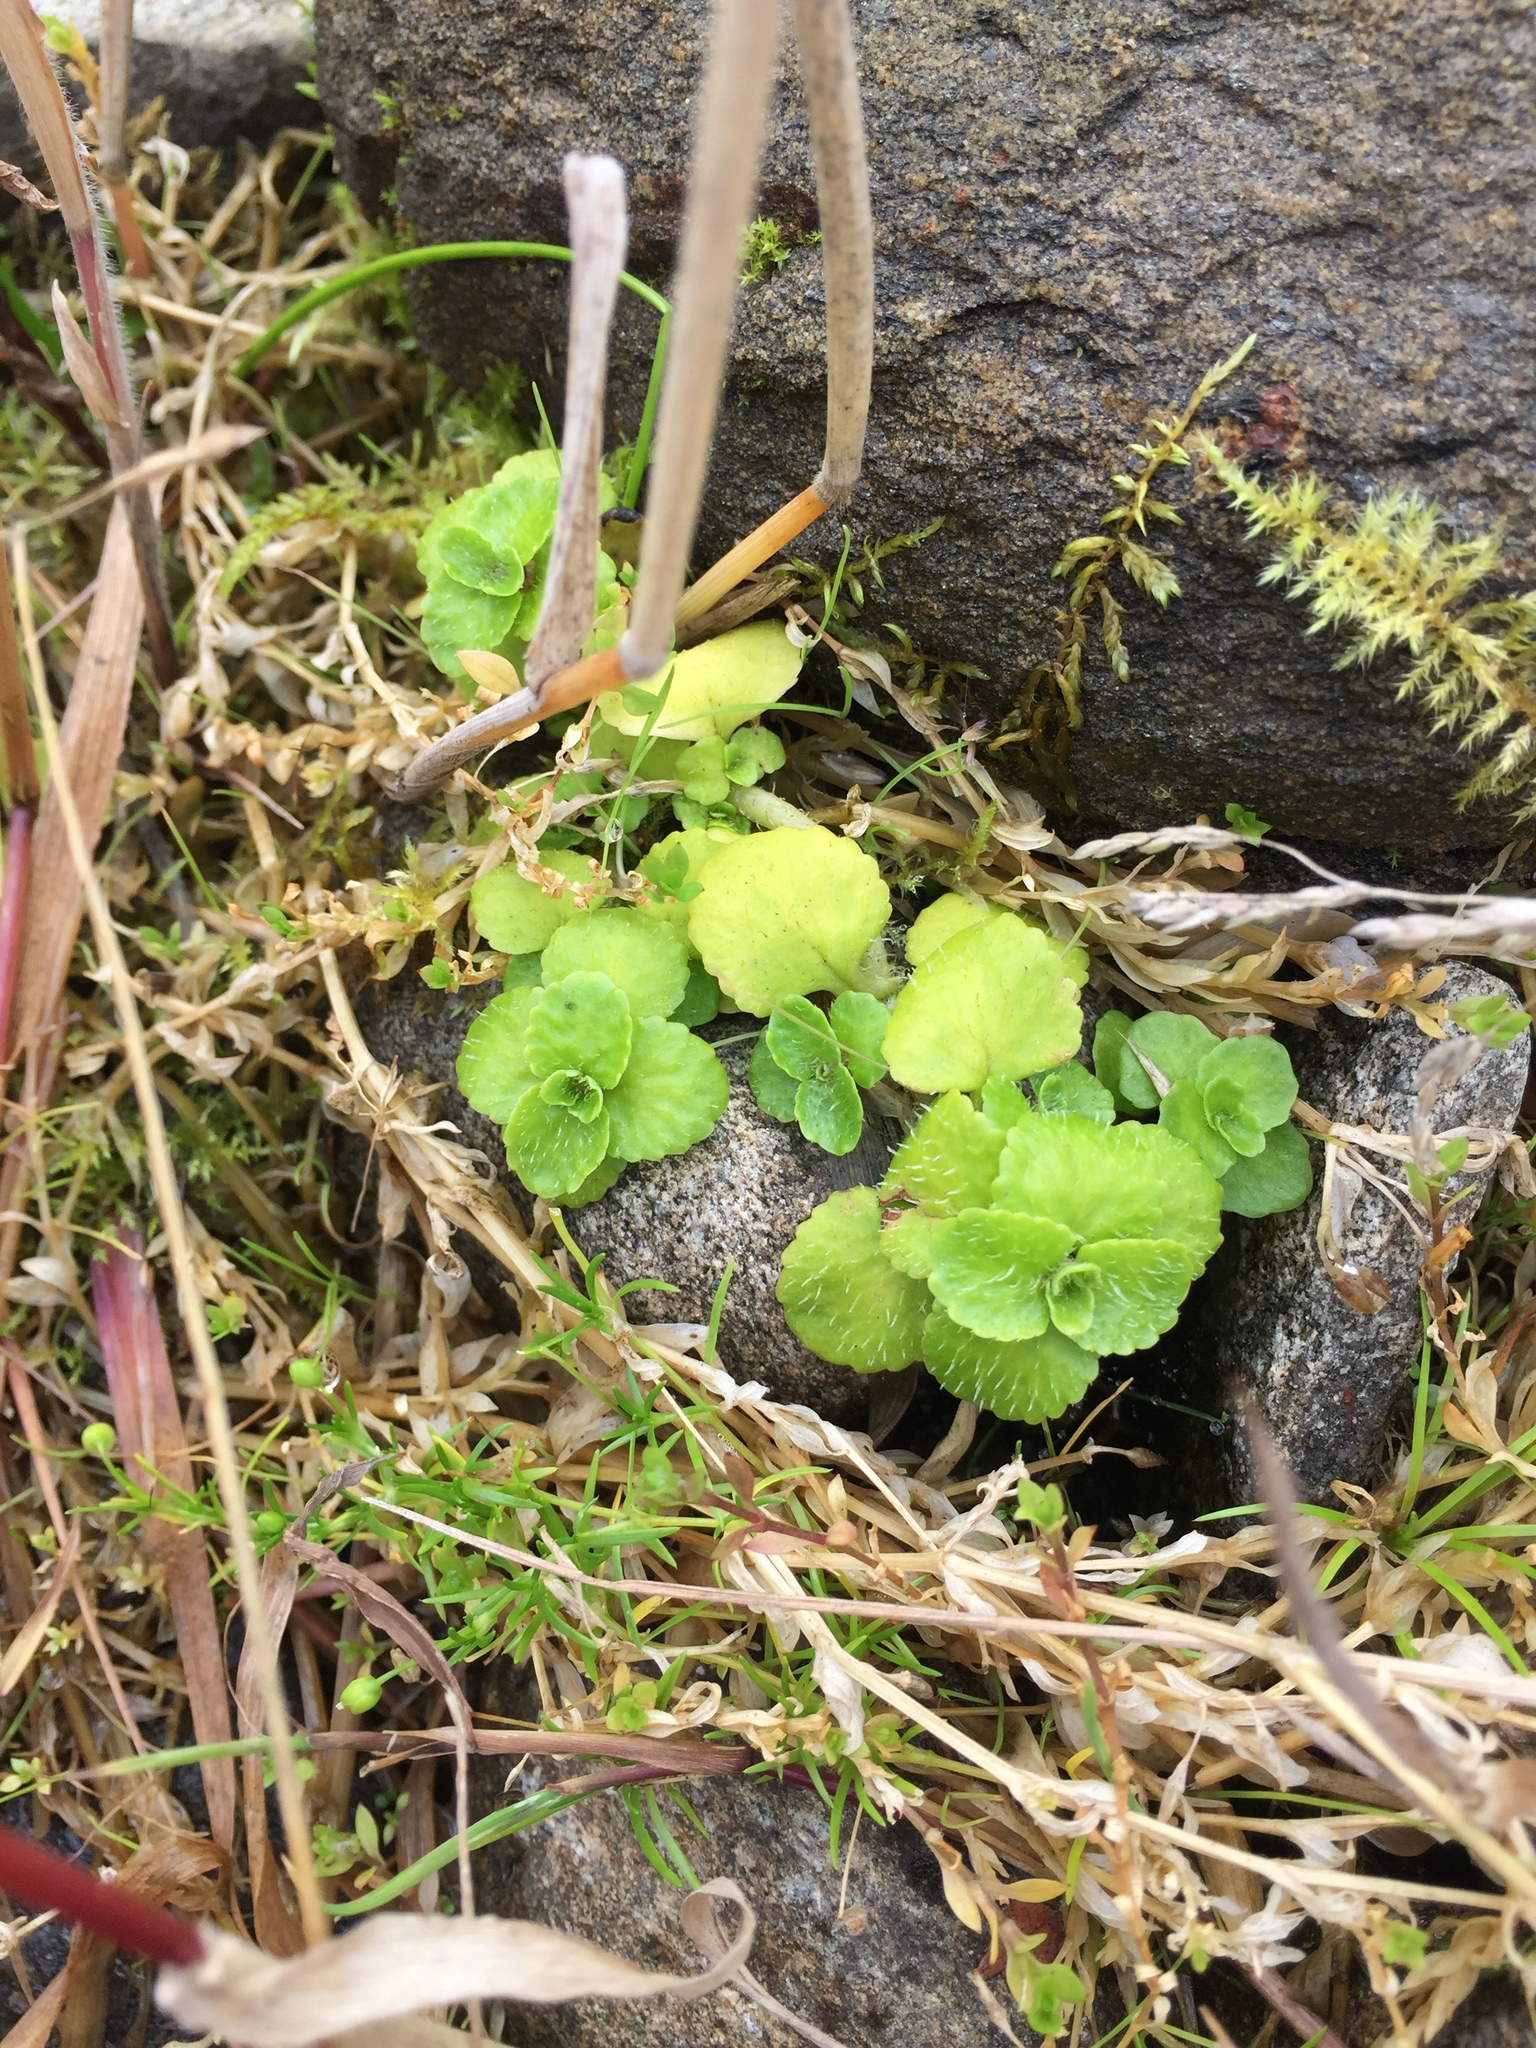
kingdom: Plantae
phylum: Tracheophyta
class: Magnoliopsida
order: Saxifragales
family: Saxifragaceae
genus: Chrysosplenium
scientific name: Chrysosplenium oppositifolium
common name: Opposite-leaved golden-saxifrage
